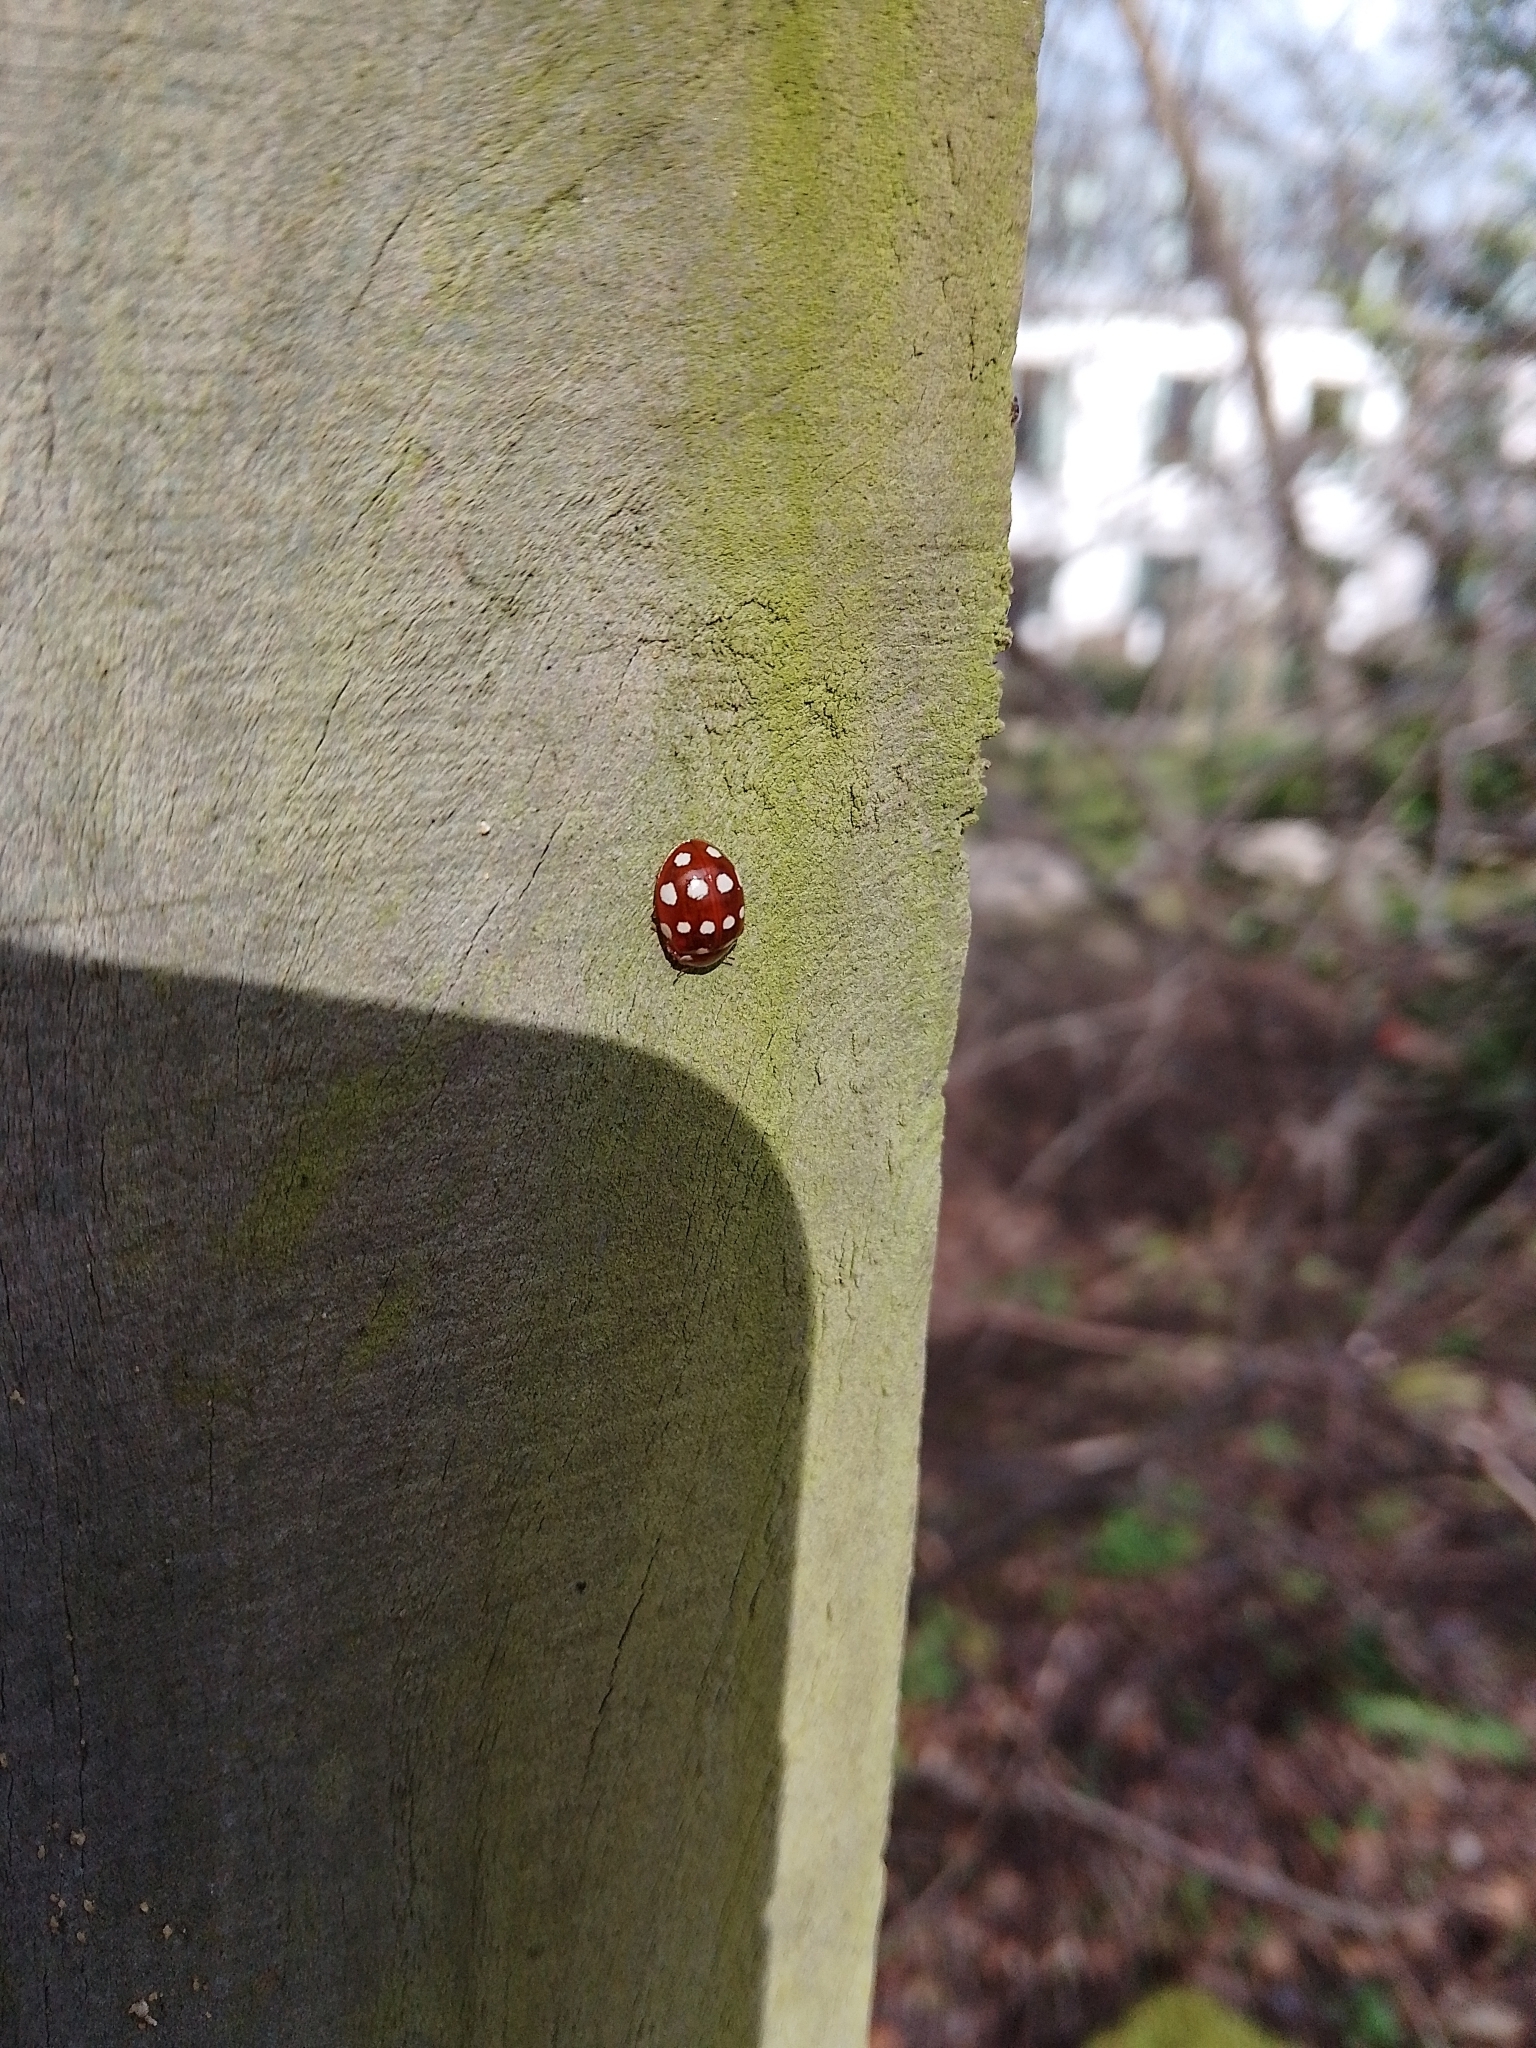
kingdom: Animalia
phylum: Arthropoda
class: Insecta
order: Coleoptera
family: Coccinellidae
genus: Calvia
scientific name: Calvia quatuordecimguttata
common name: Cream-spot ladybird
